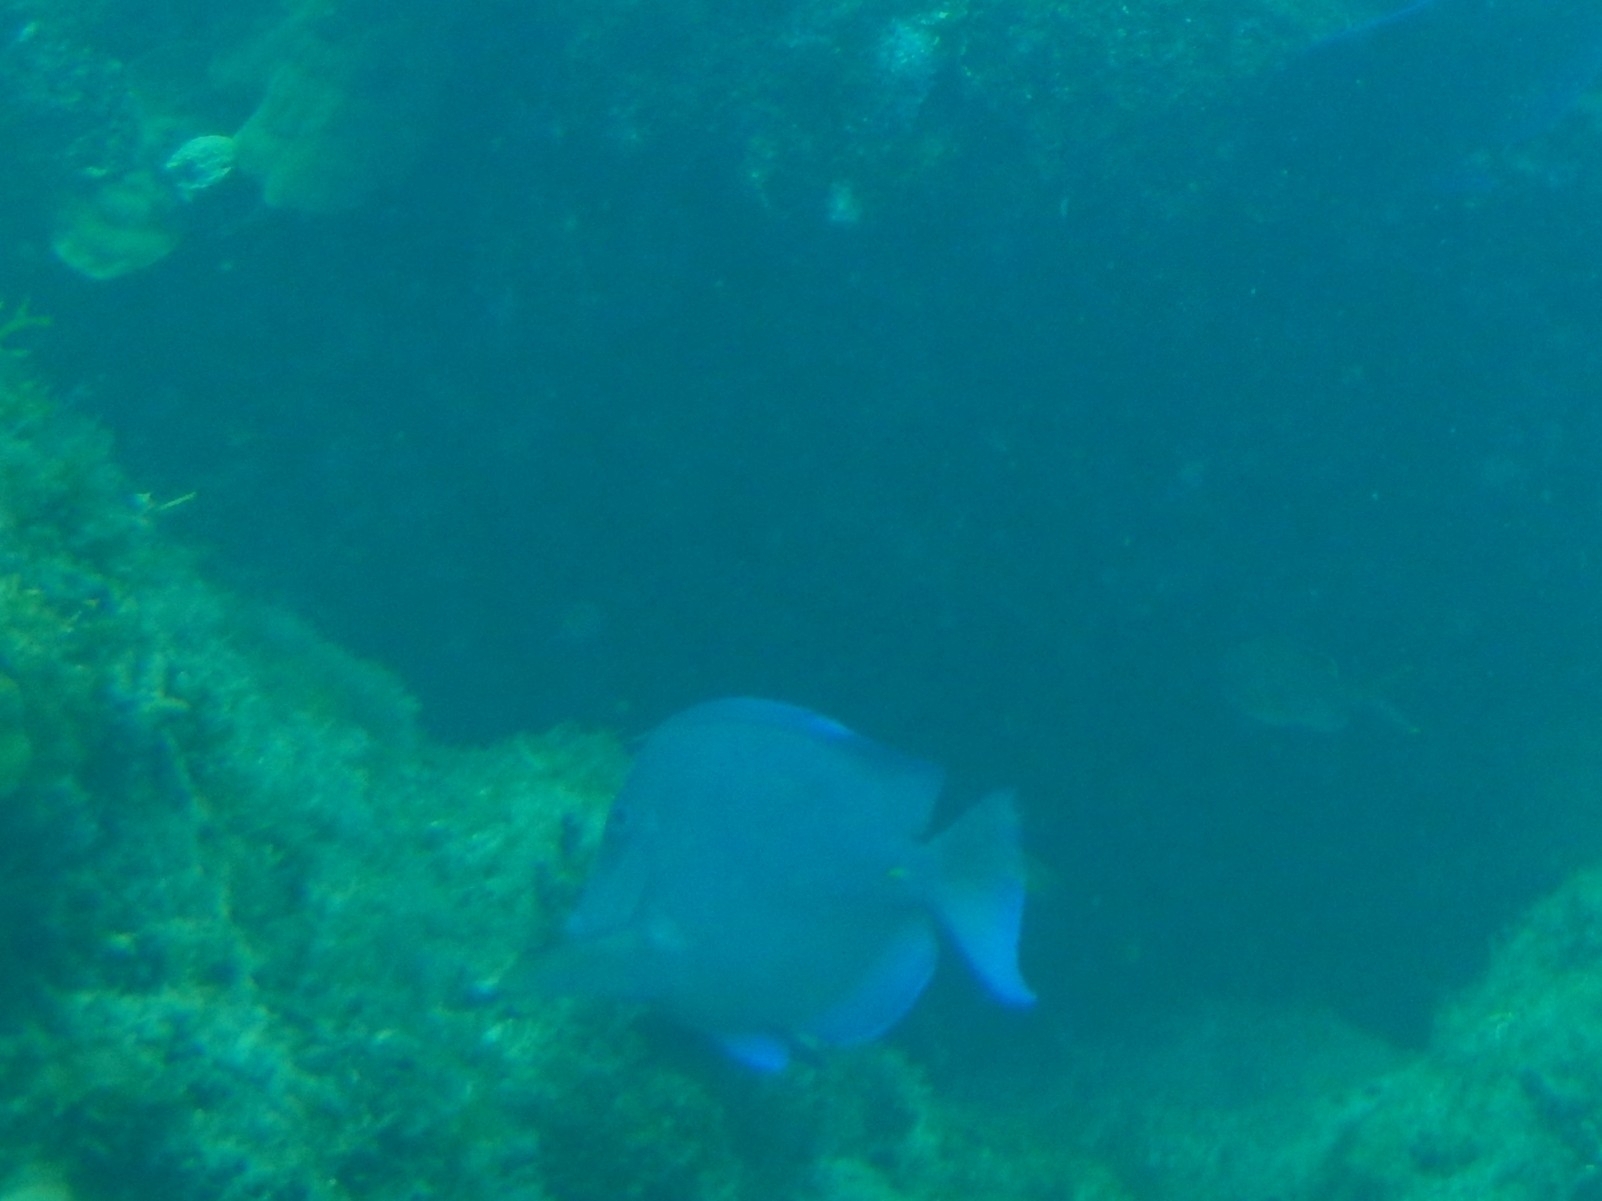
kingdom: Animalia
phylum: Chordata
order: Perciformes
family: Acanthuridae
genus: Acanthurus
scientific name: Acanthurus coeruleus
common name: Blue tang
